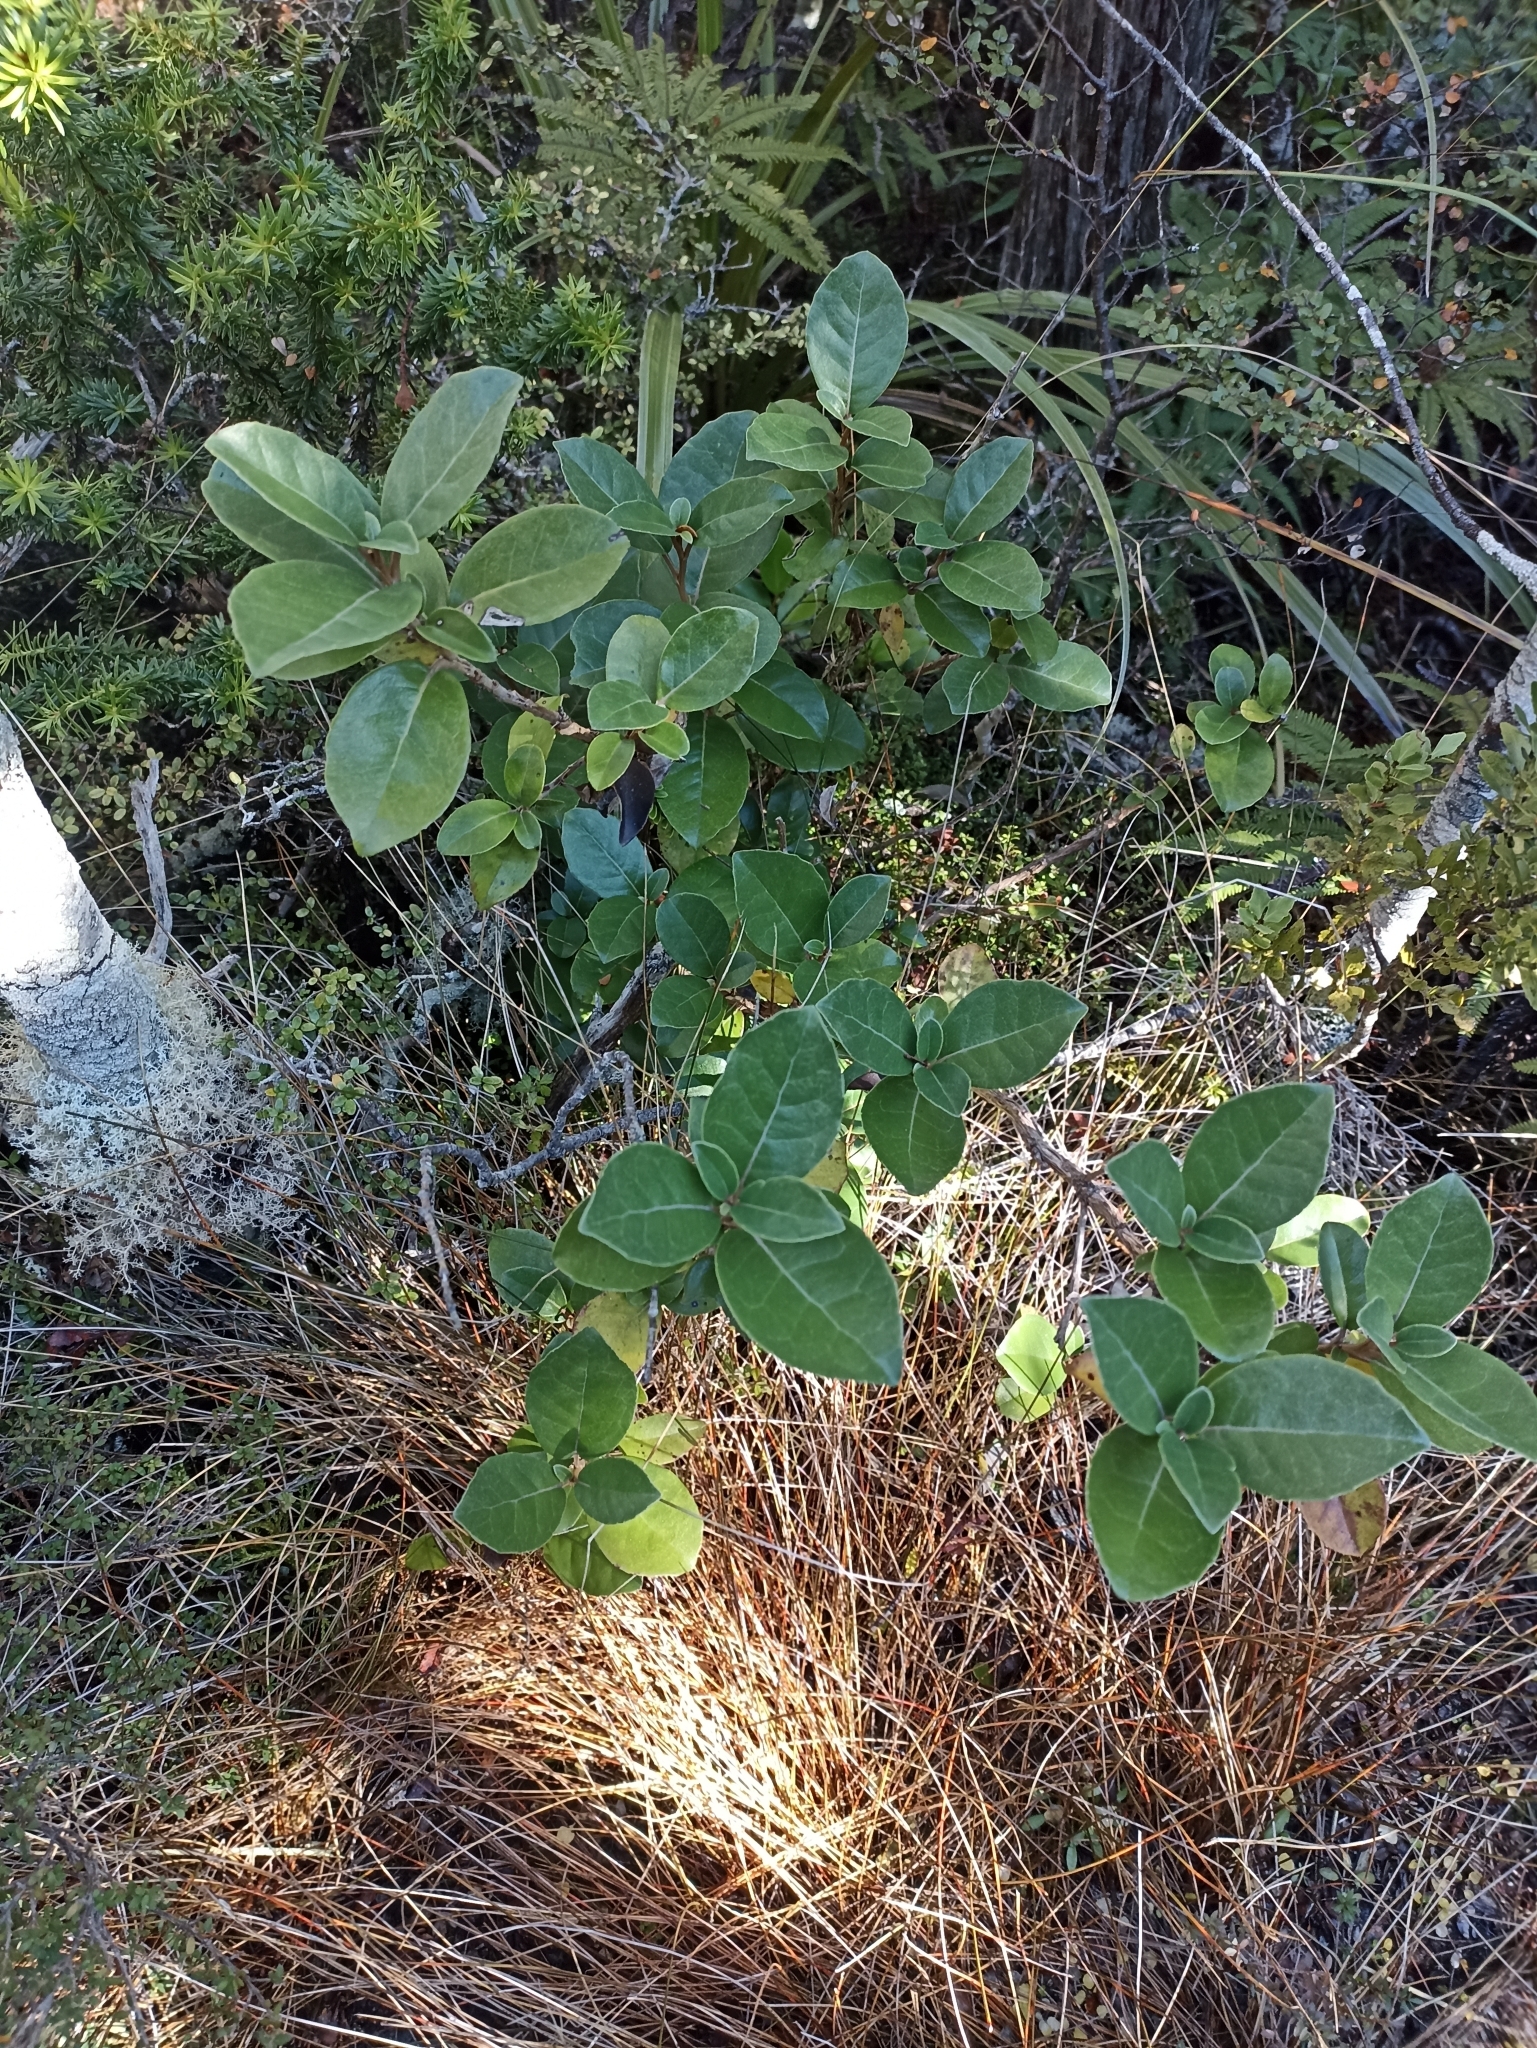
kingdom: Plantae
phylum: Tracheophyta
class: Magnoliopsida
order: Asterales
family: Asteraceae
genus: Olearia
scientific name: Olearia arborescens
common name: Glossy tree daisy
